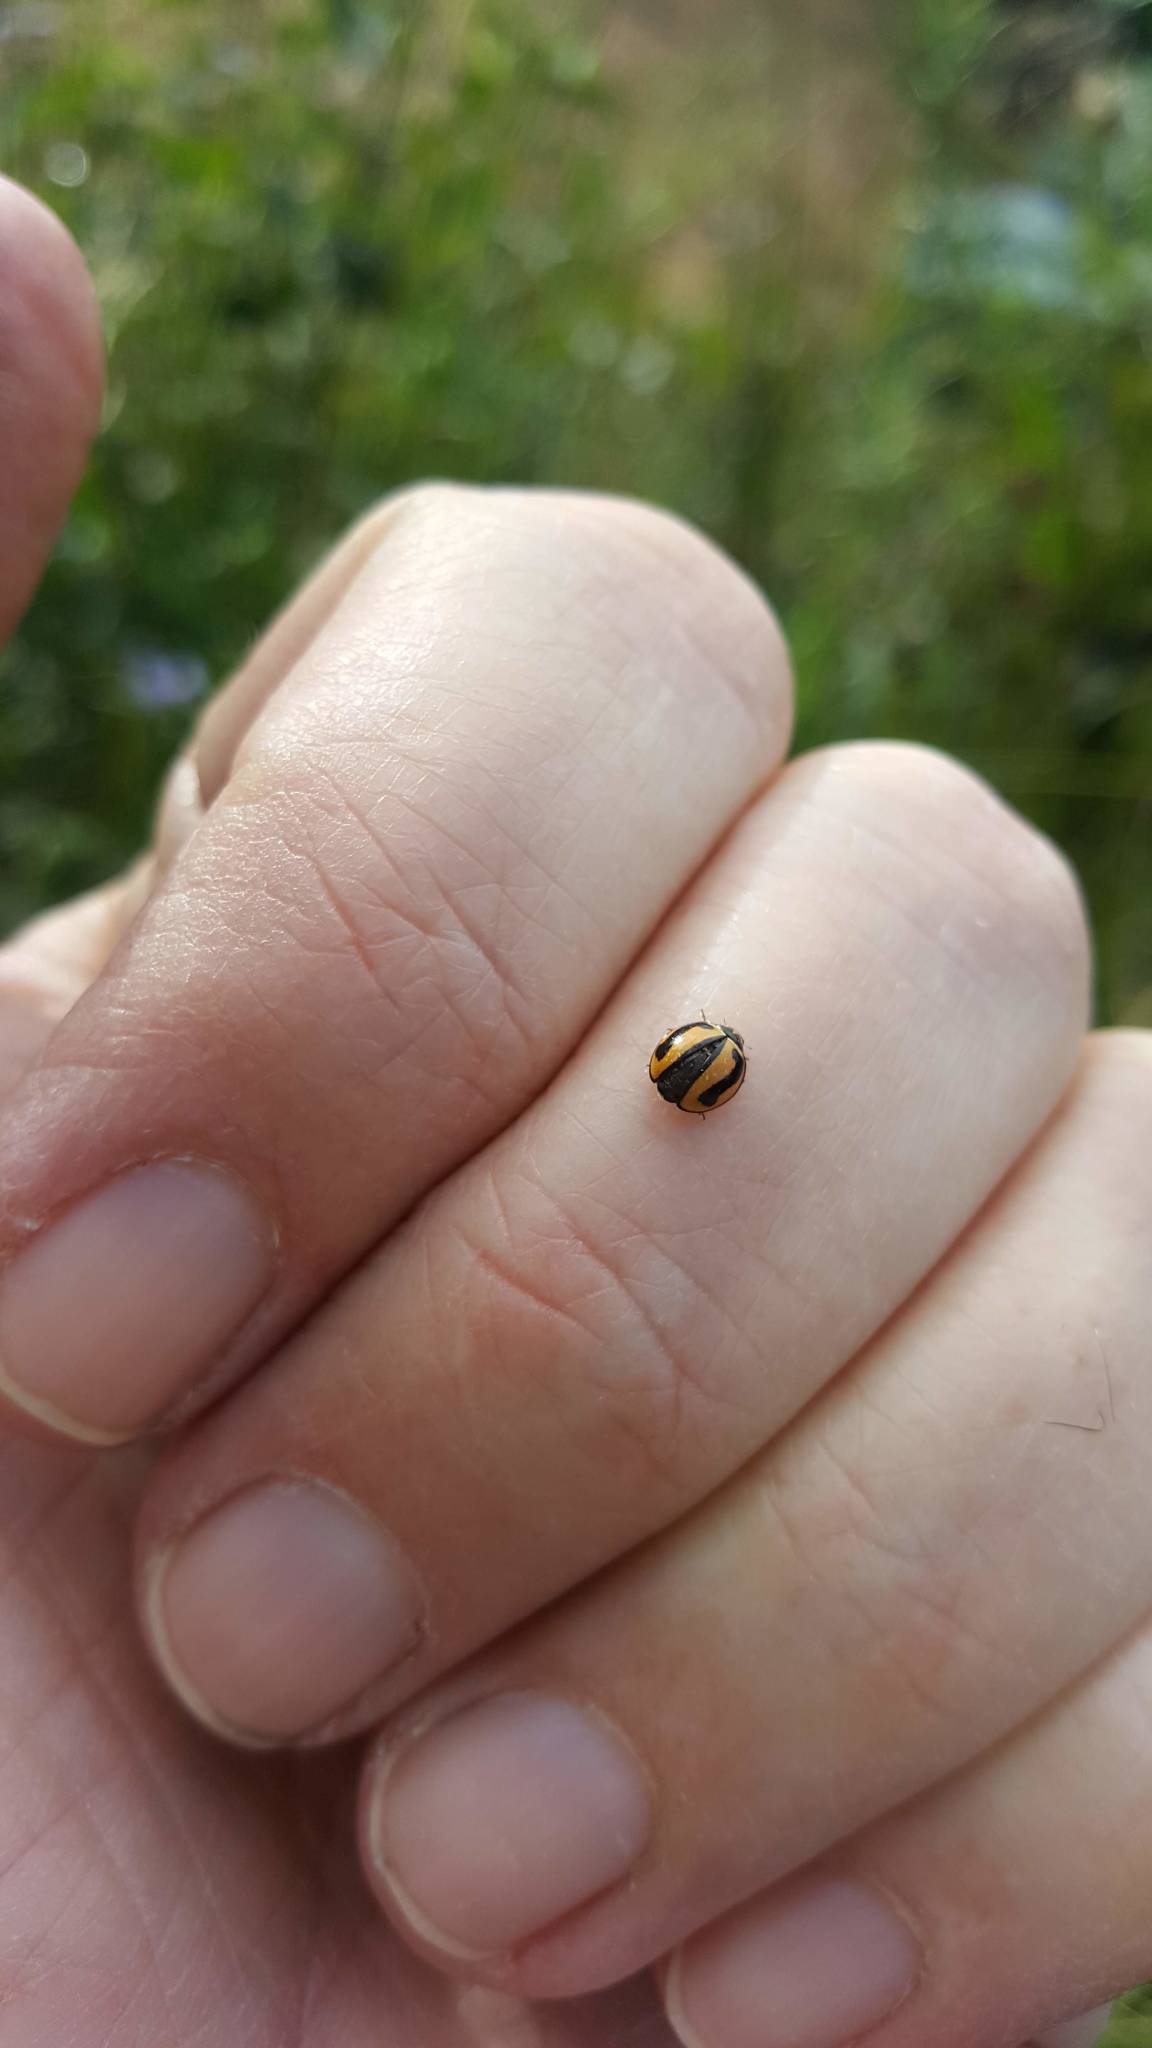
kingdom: Animalia
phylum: Arthropoda
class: Insecta
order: Coleoptera
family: Coccinellidae
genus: Micraspis
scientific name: Micraspis frenata
